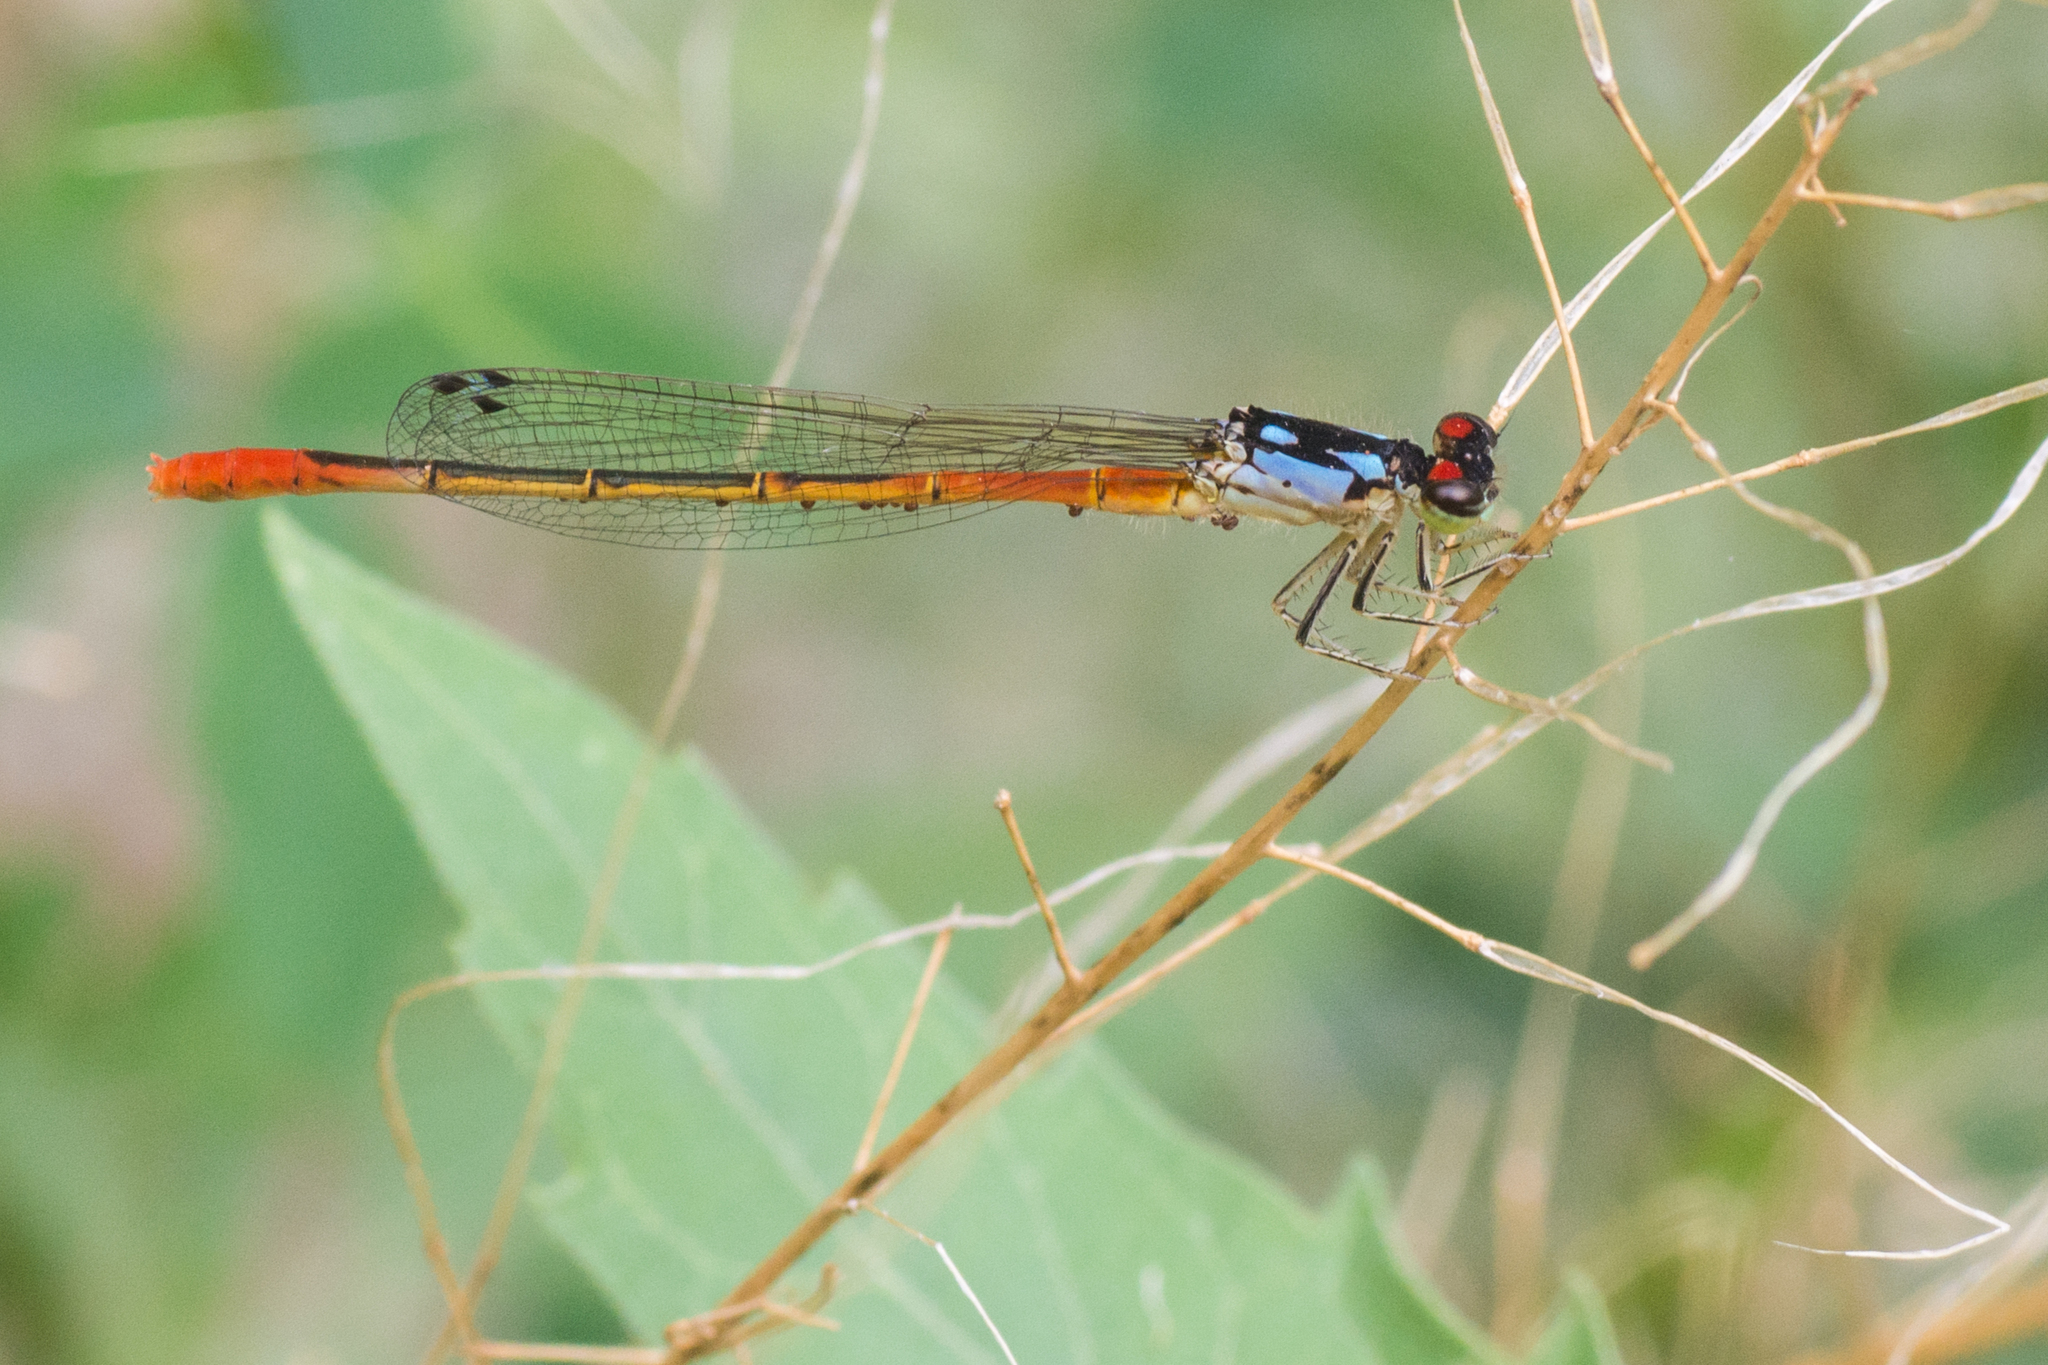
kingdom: Animalia
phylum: Arthropoda
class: Insecta
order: Odonata
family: Coenagrionidae
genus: Hesperagrion
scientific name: Hesperagrion heterodoxum
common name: Painted damsel
